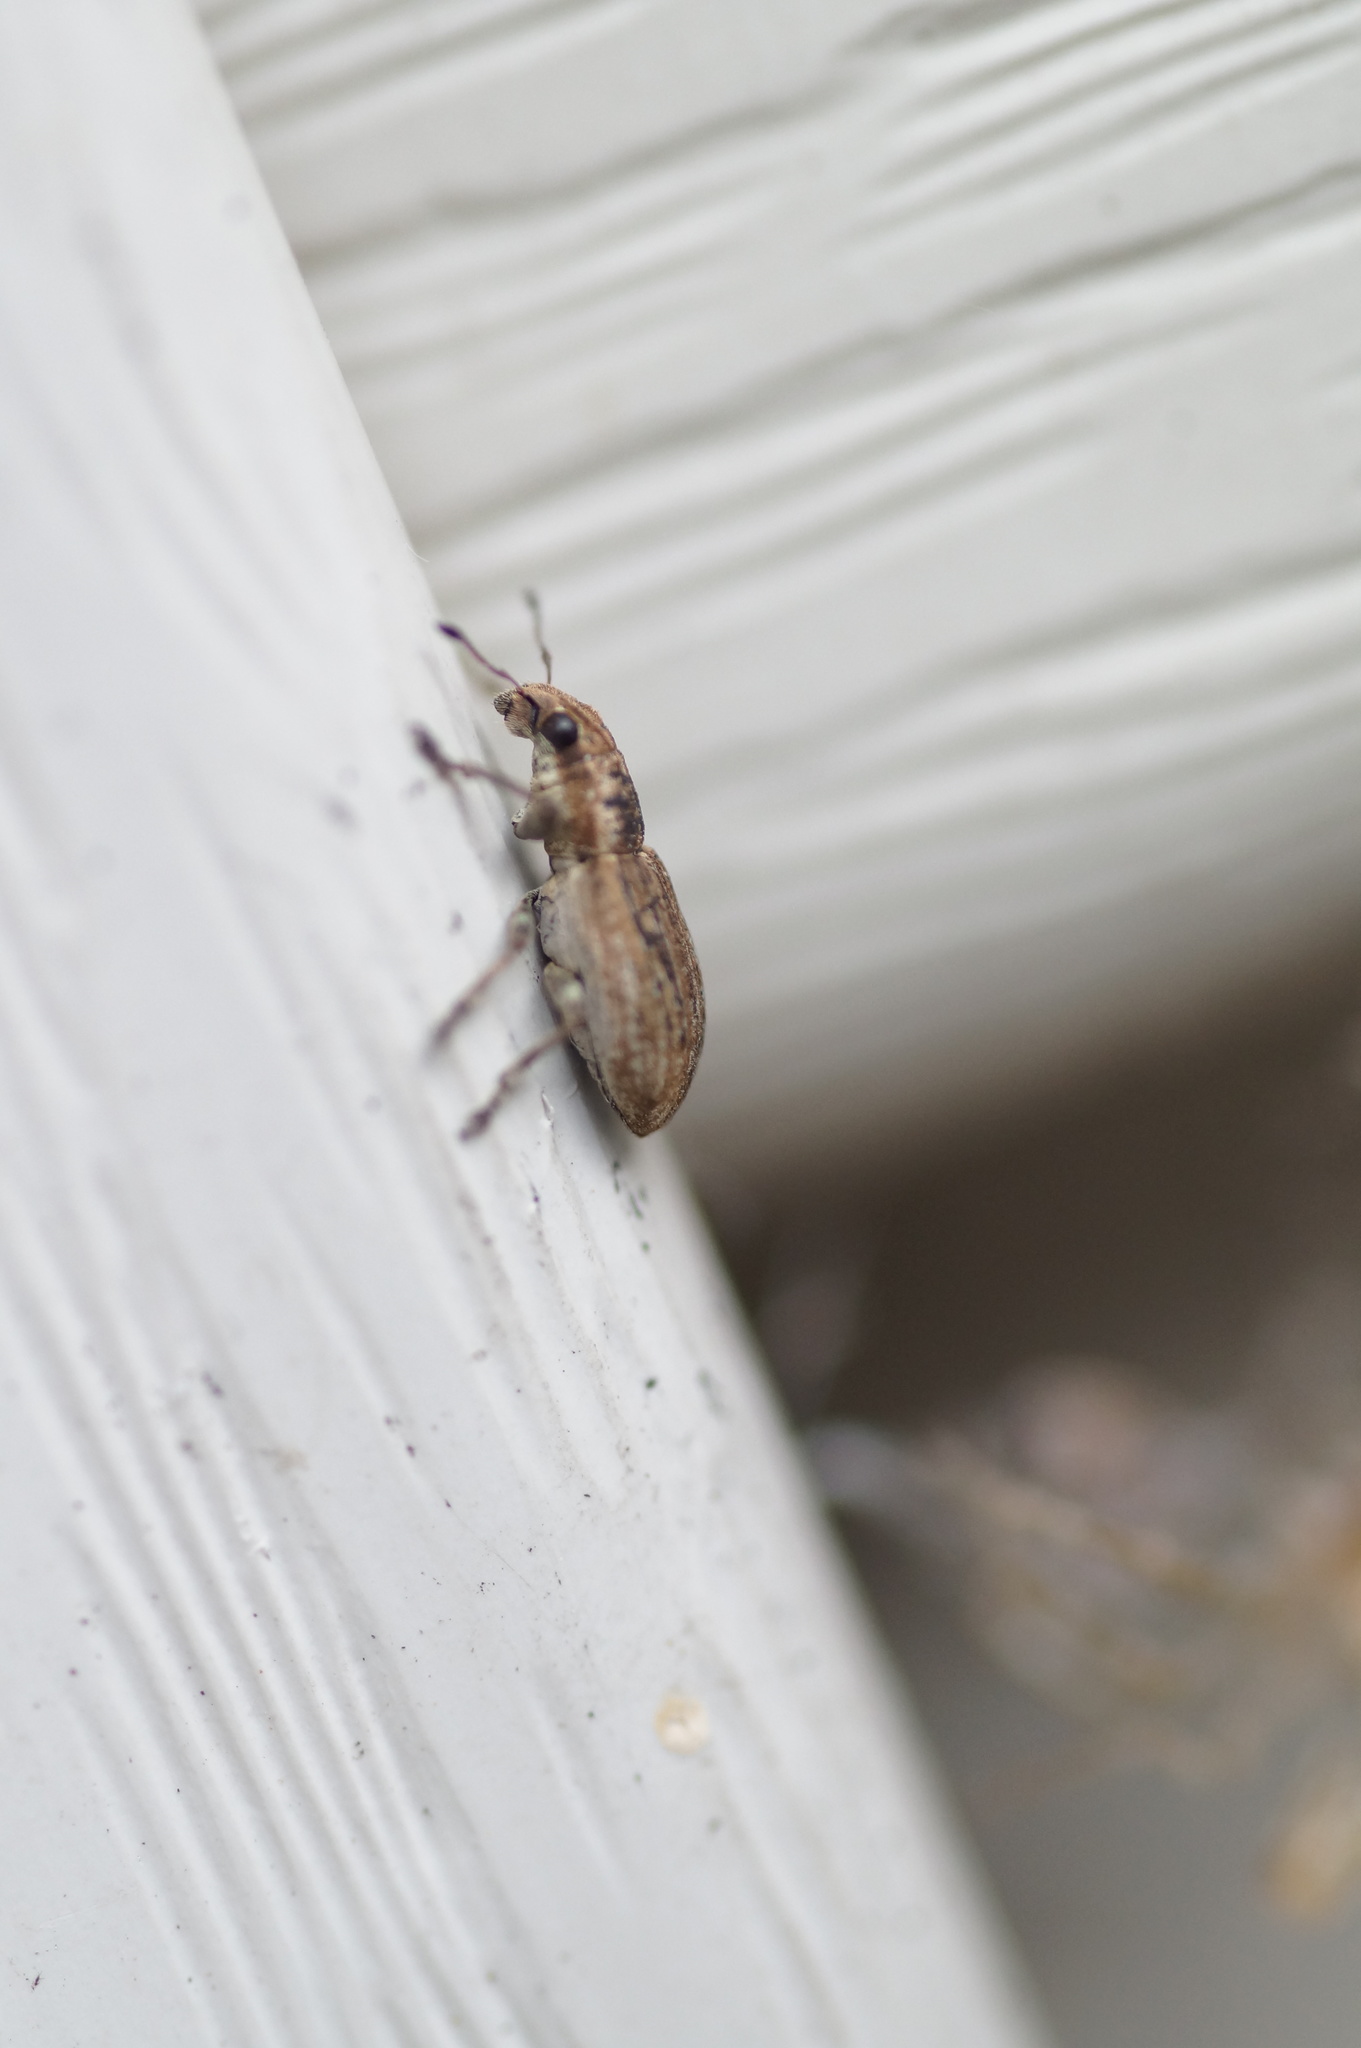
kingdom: Animalia
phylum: Arthropoda
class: Insecta
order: Coleoptera
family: Curculionidae
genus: Sitona
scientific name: Sitona obsoletus
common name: Weevil
